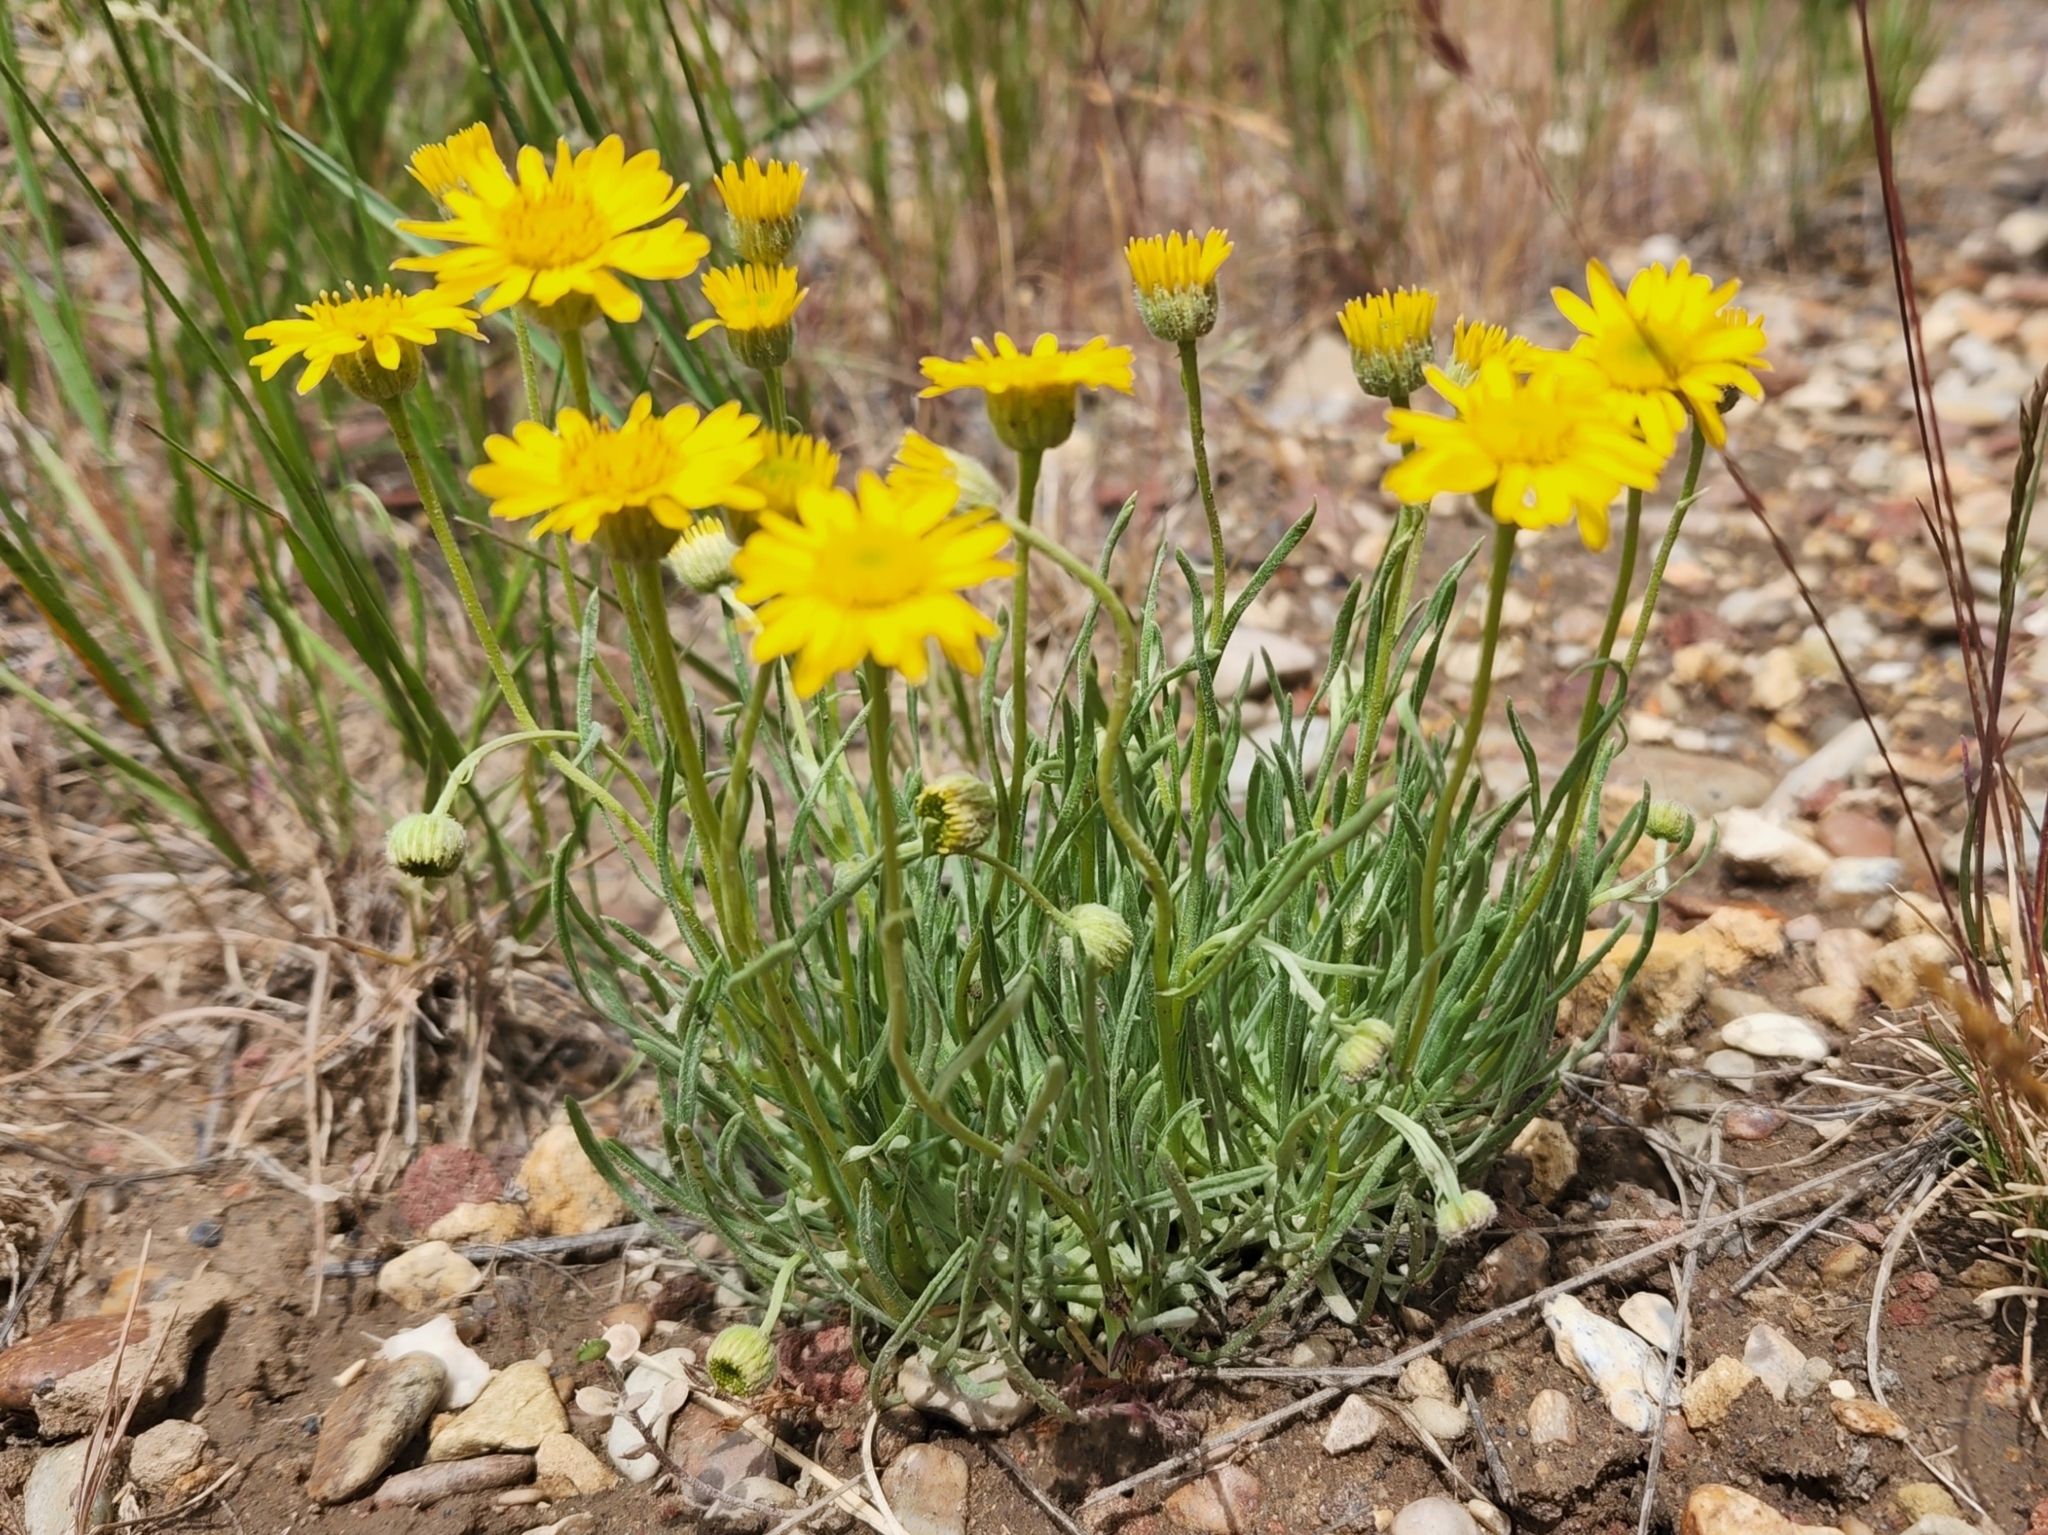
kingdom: Plantae
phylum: Tracheophyta
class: Magnoliopsida
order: Asterales
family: Asteraceae
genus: Erigeron
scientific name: Erigeron linearis
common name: Desert yellow fleabane
